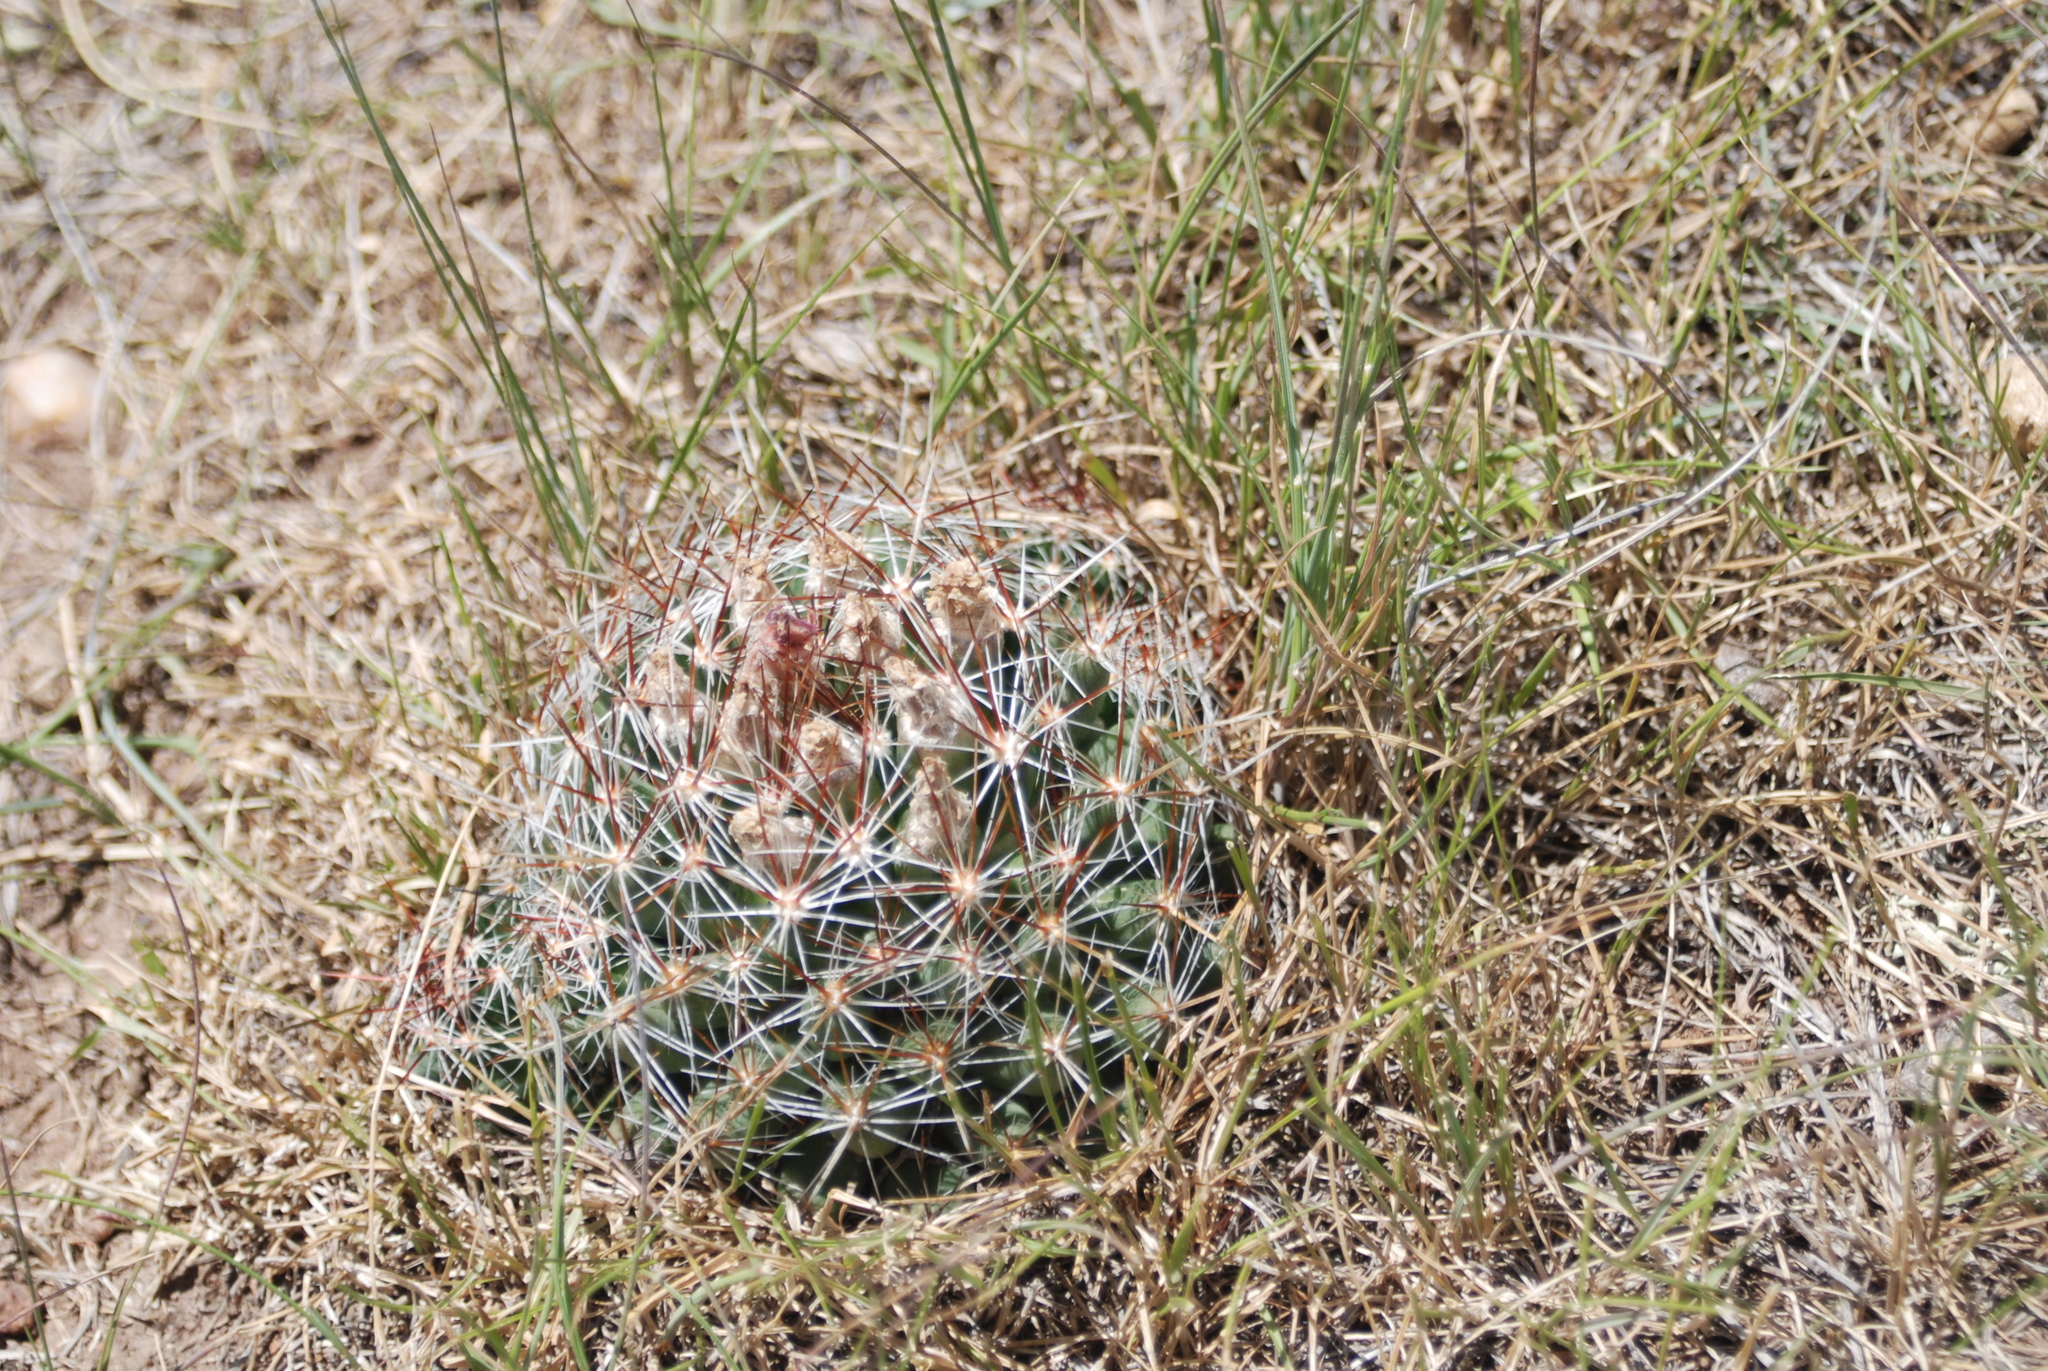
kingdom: Plantae
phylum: Tracheophyta
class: Magnoliopsida
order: Caryophyllales
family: Cactaceae
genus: Pelecyphora
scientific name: Pelecyphora vivipara
